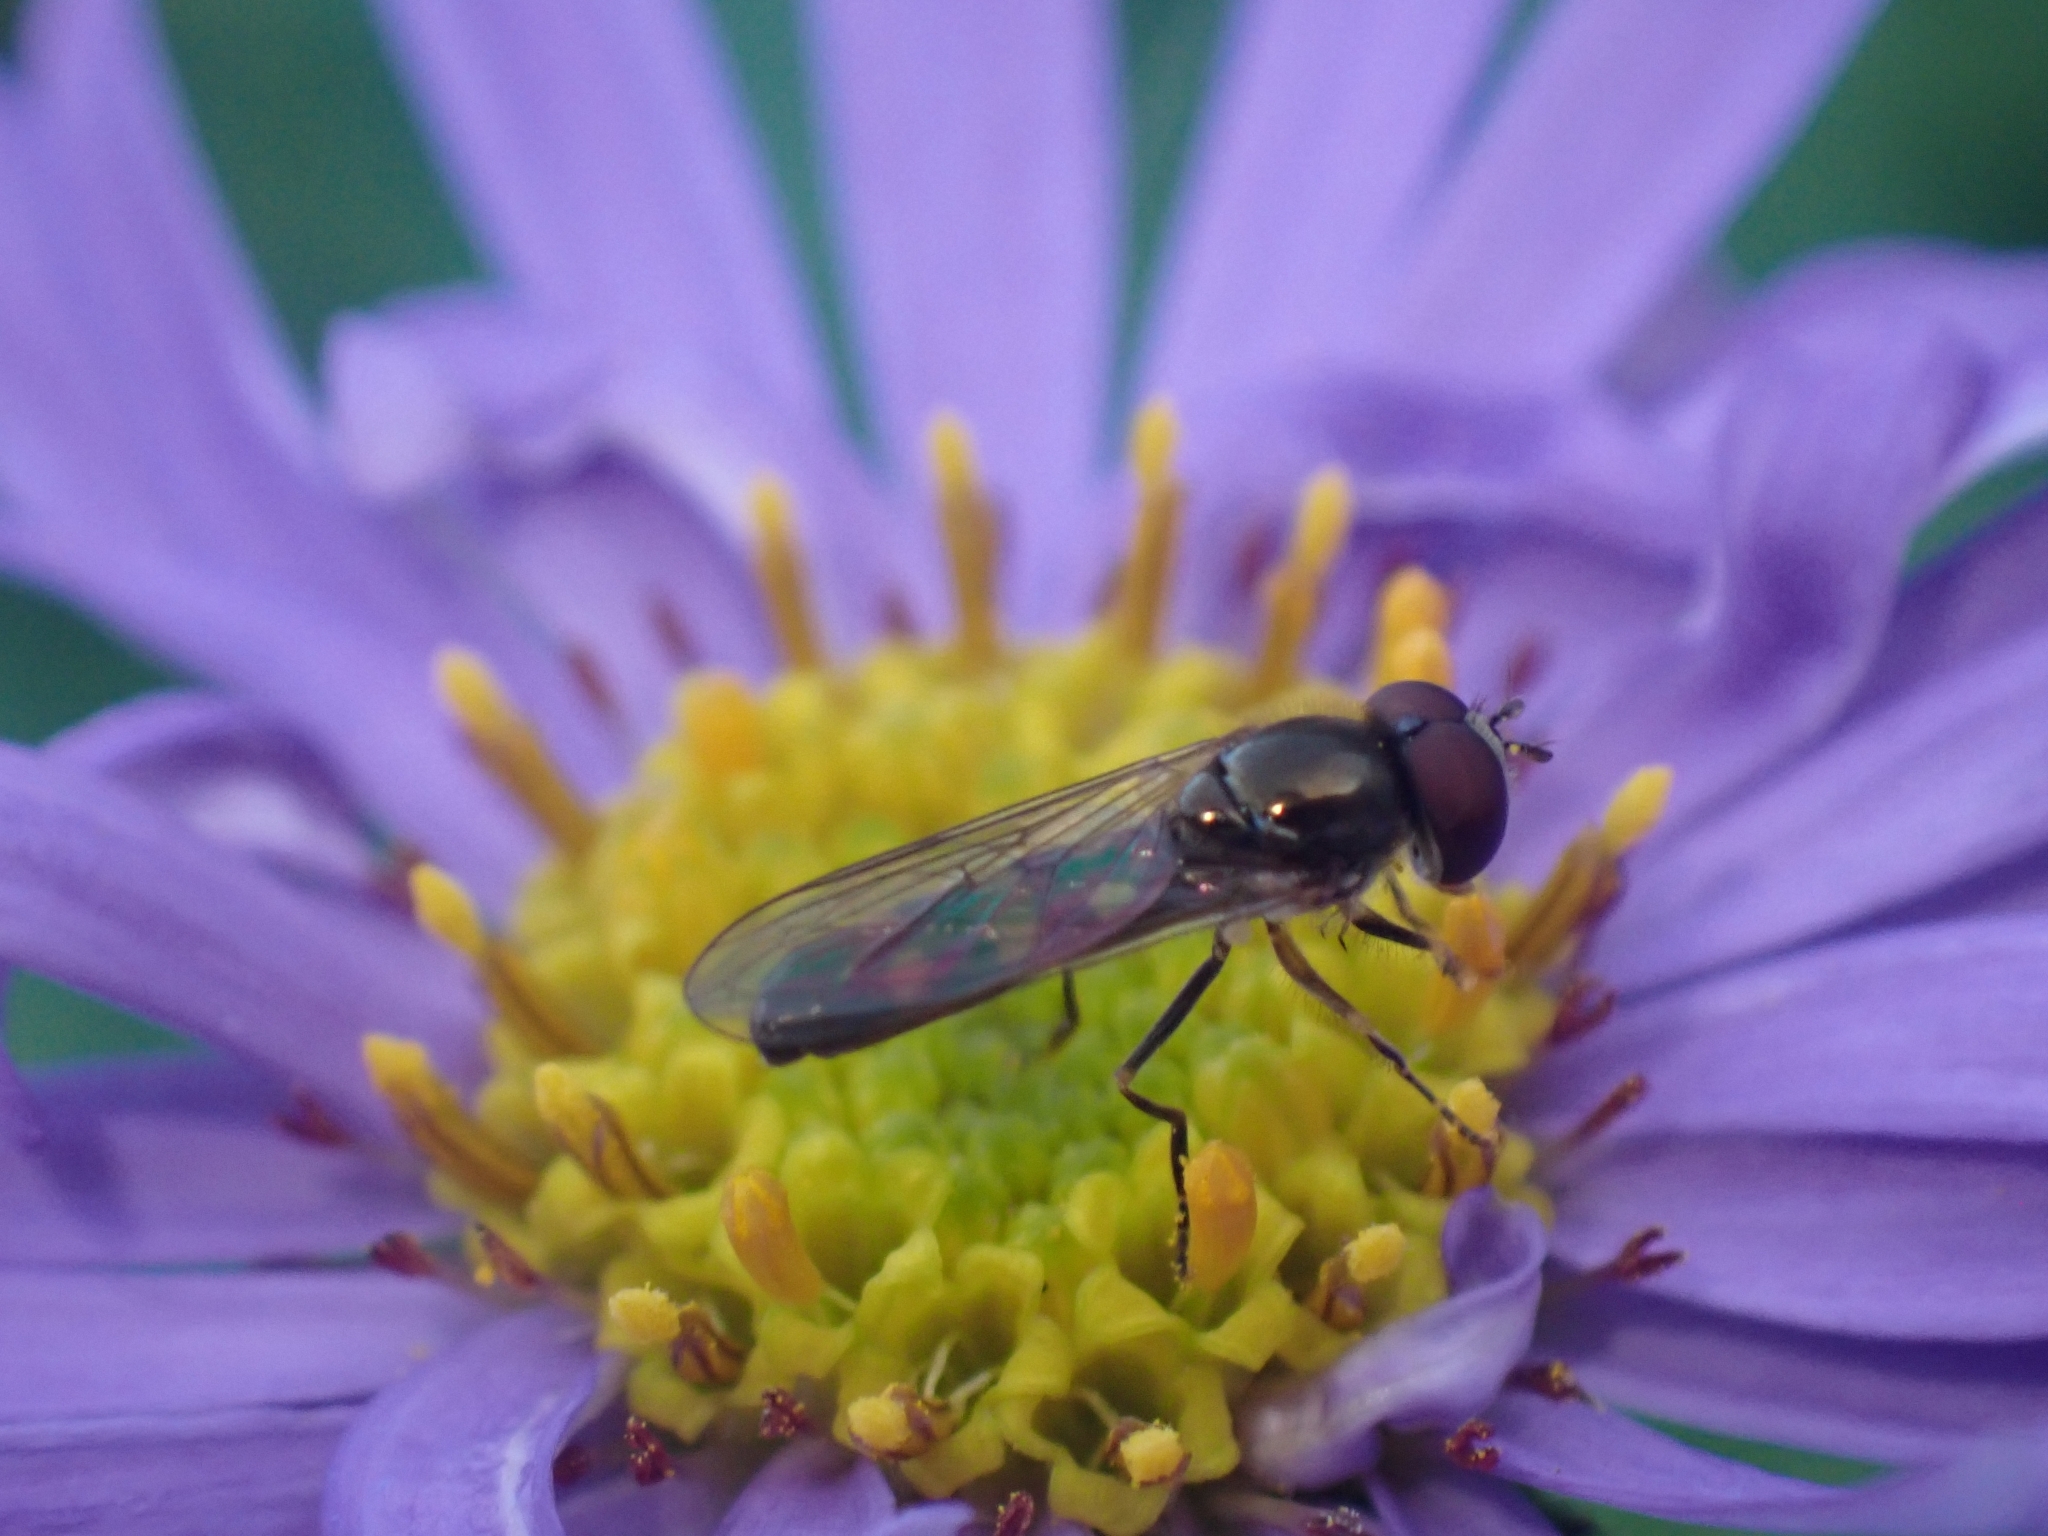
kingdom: Animalia
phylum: Arthropoda
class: Insecta
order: Diptera
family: Syrphidae
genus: Platycheirus
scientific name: Platycheirus scutatus
